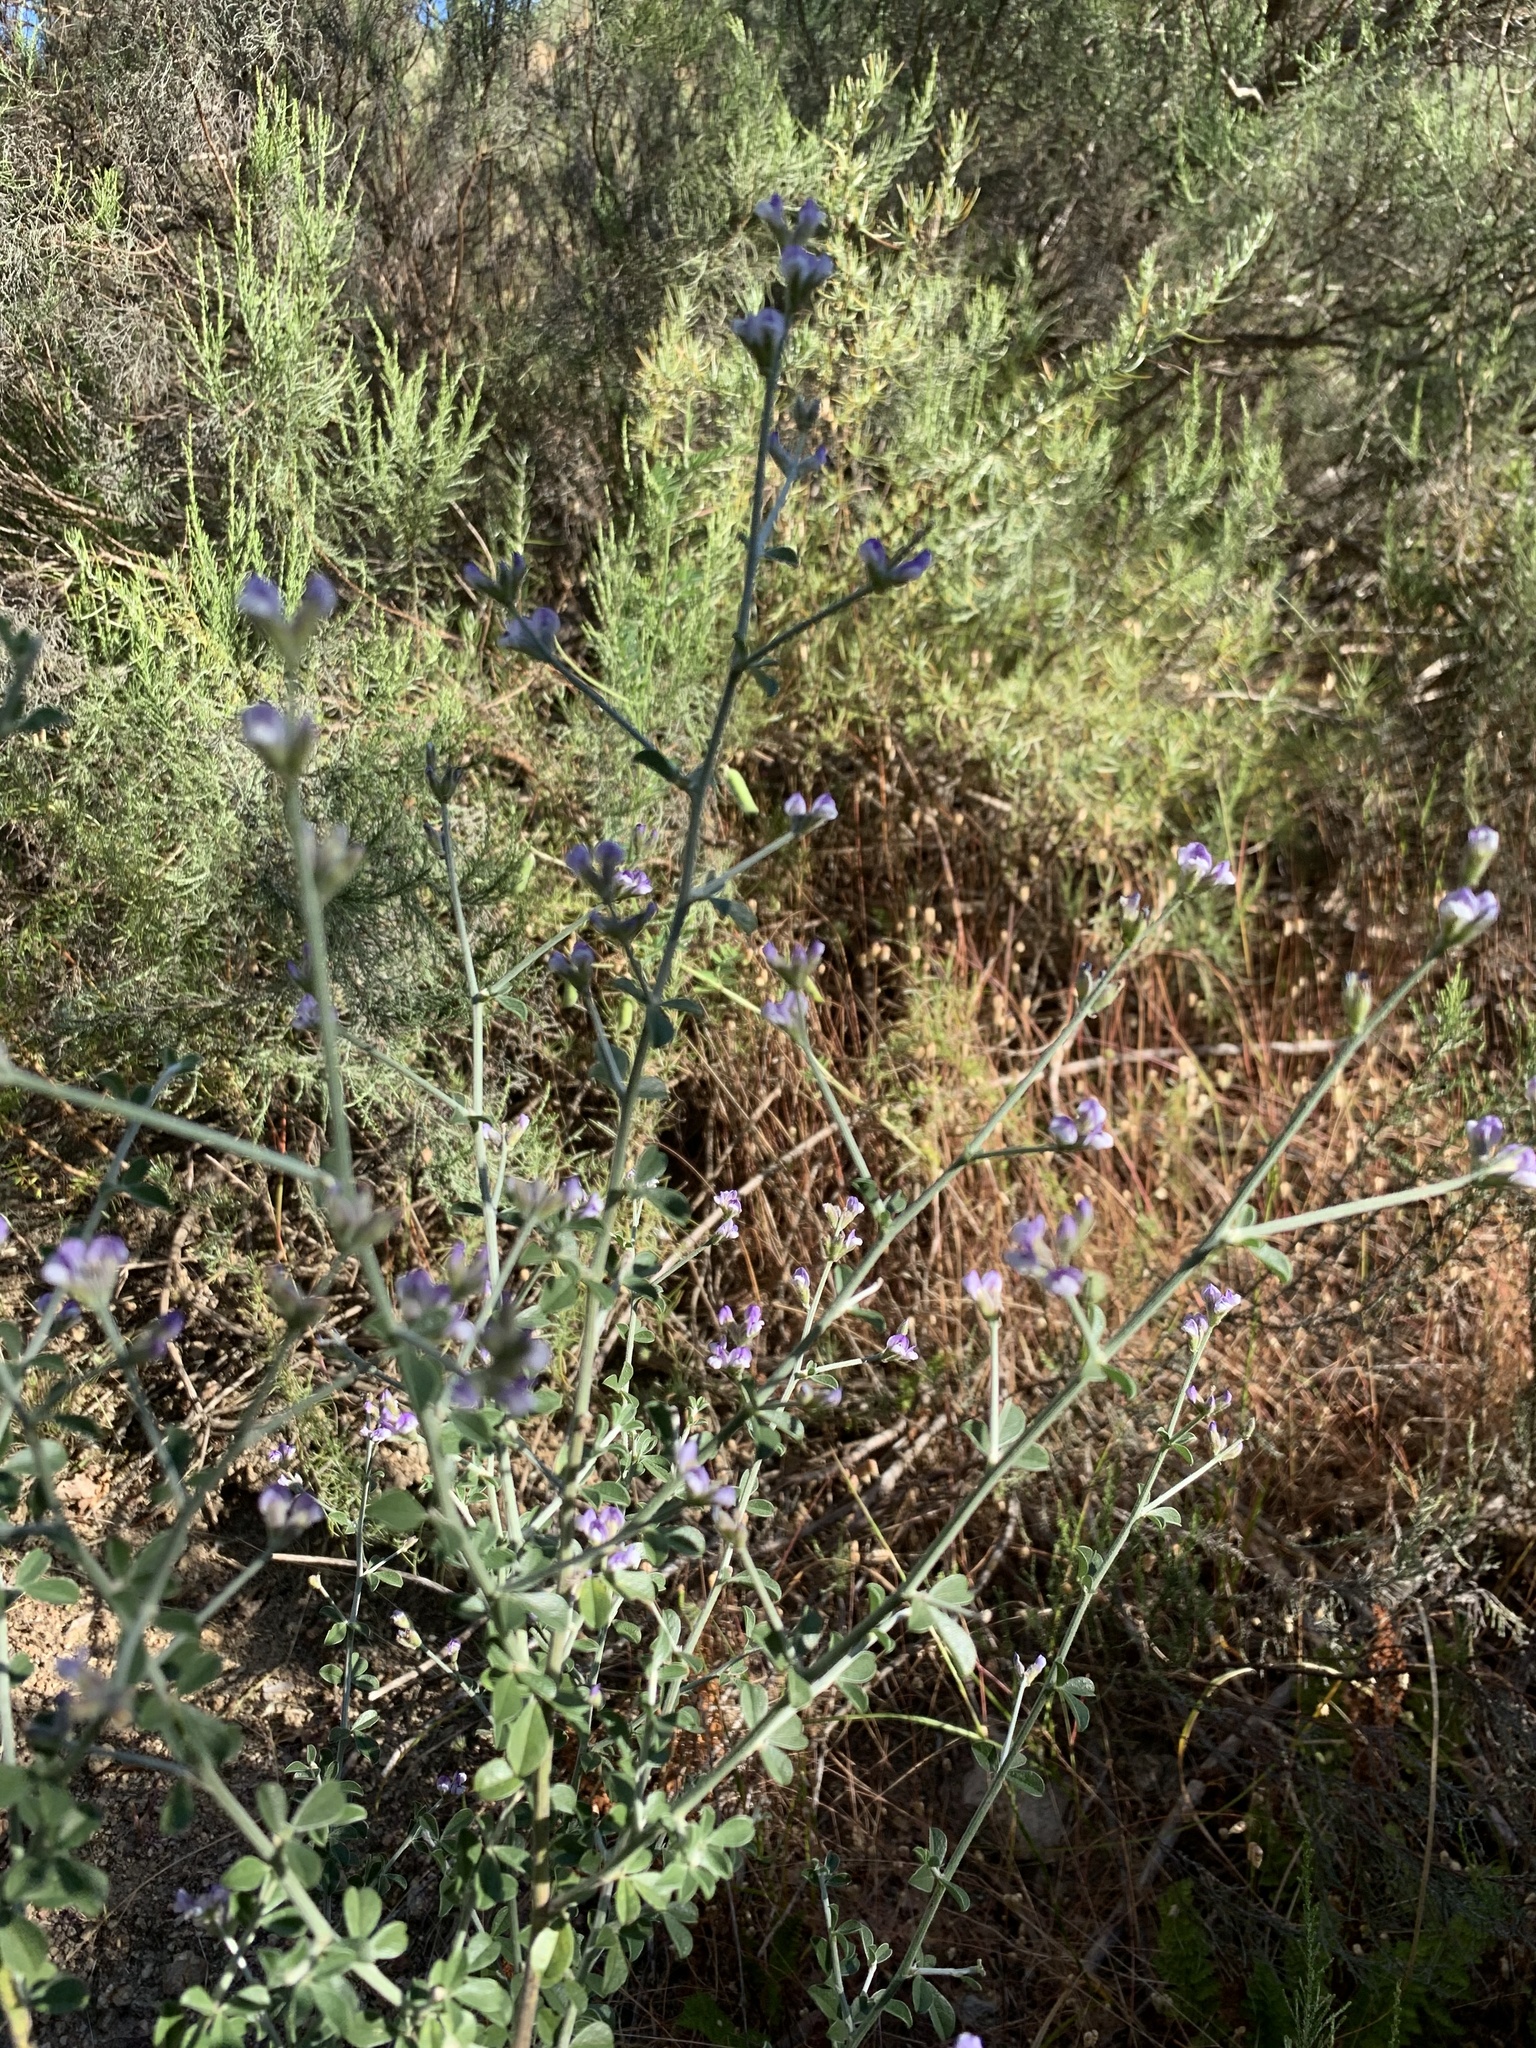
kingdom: Plantae
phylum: Tracheophyta
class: Magnoliopsida
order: Fabales
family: Fabaceae
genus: Psoralea
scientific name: Psoralea hirta
